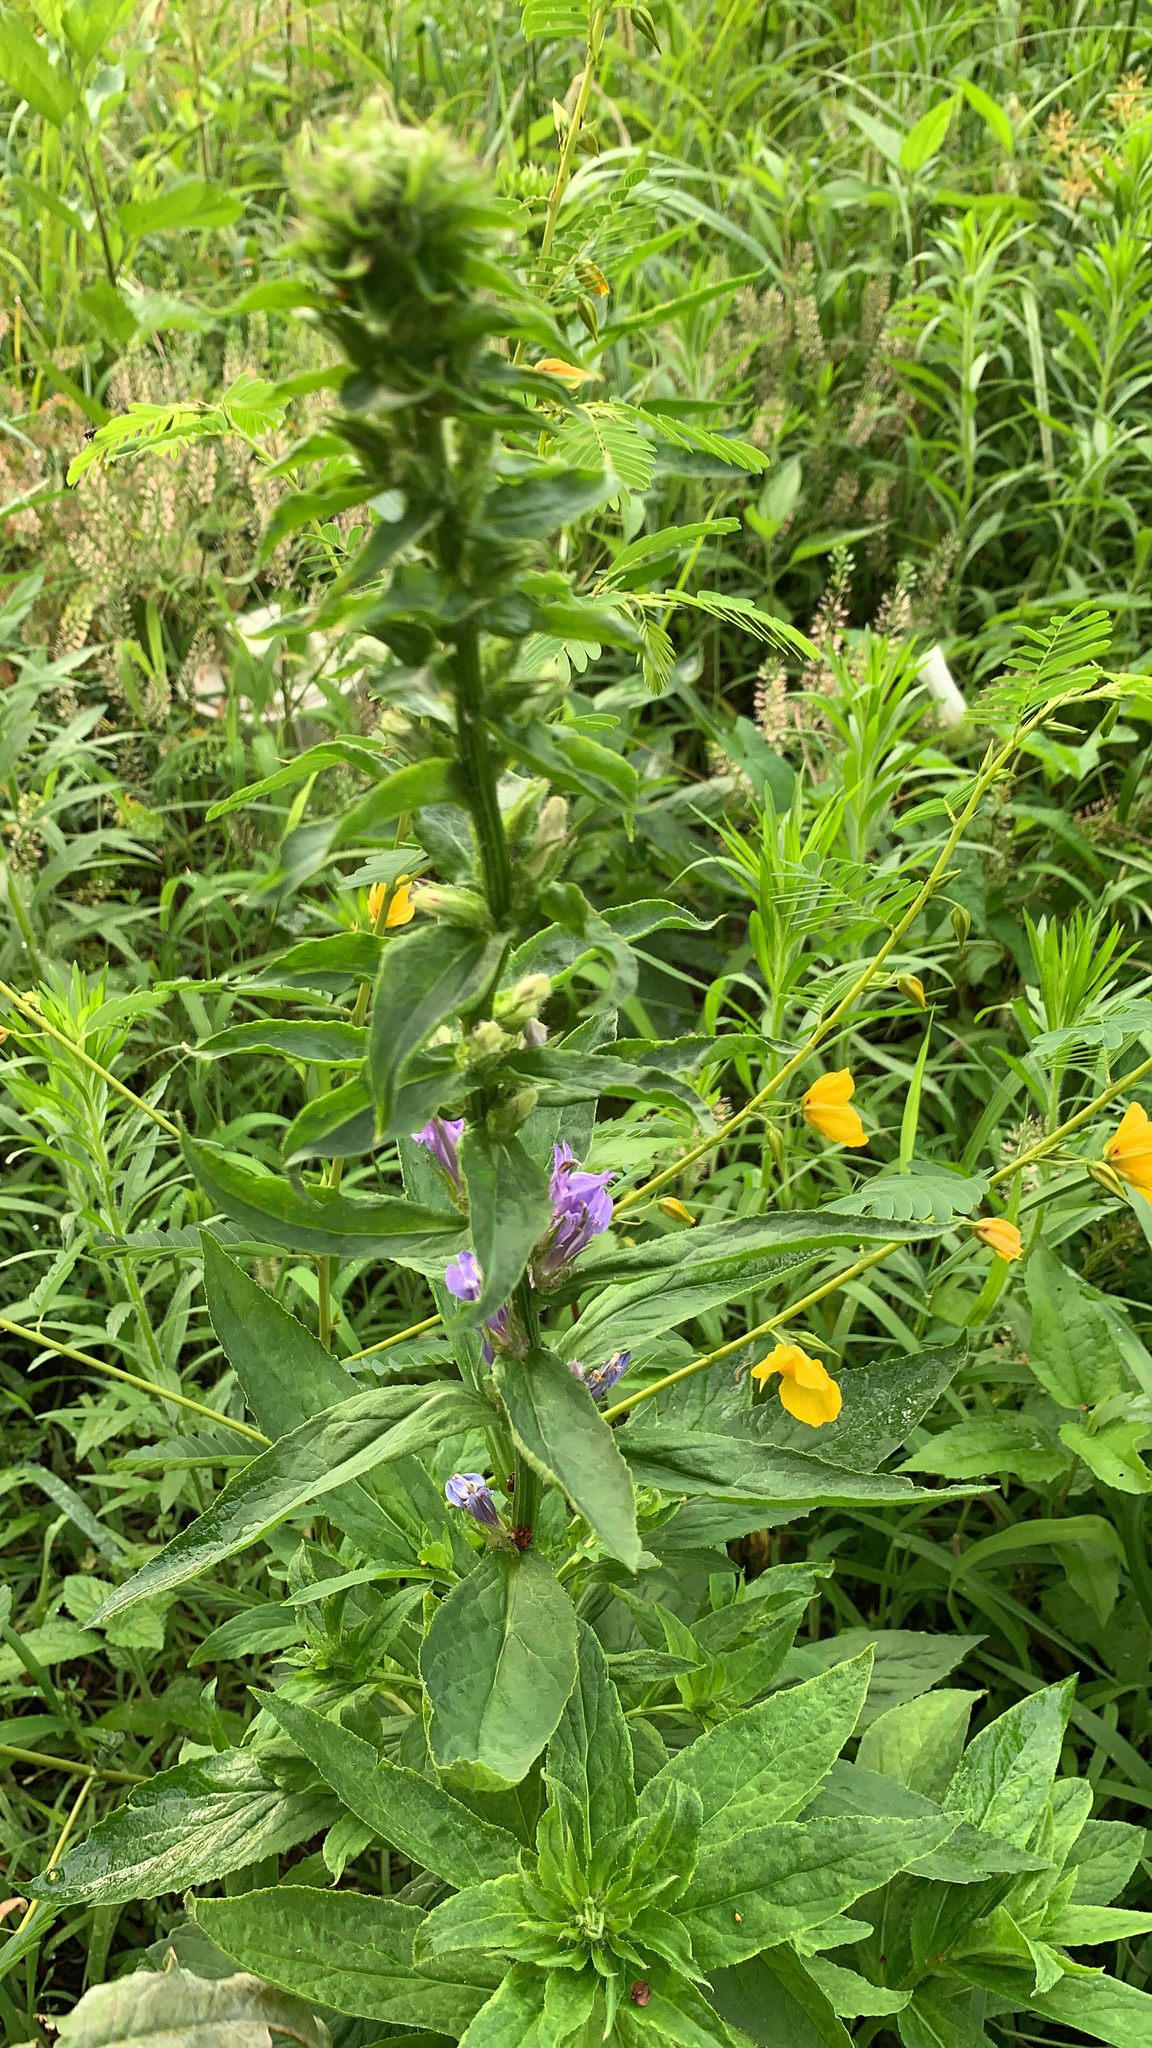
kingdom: Plantae
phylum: Tracheophyta
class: Magnoliopsida
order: Asterales
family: Campanulaceae
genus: Lobelia
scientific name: Lobelia siphilitica
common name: Great lobelia
